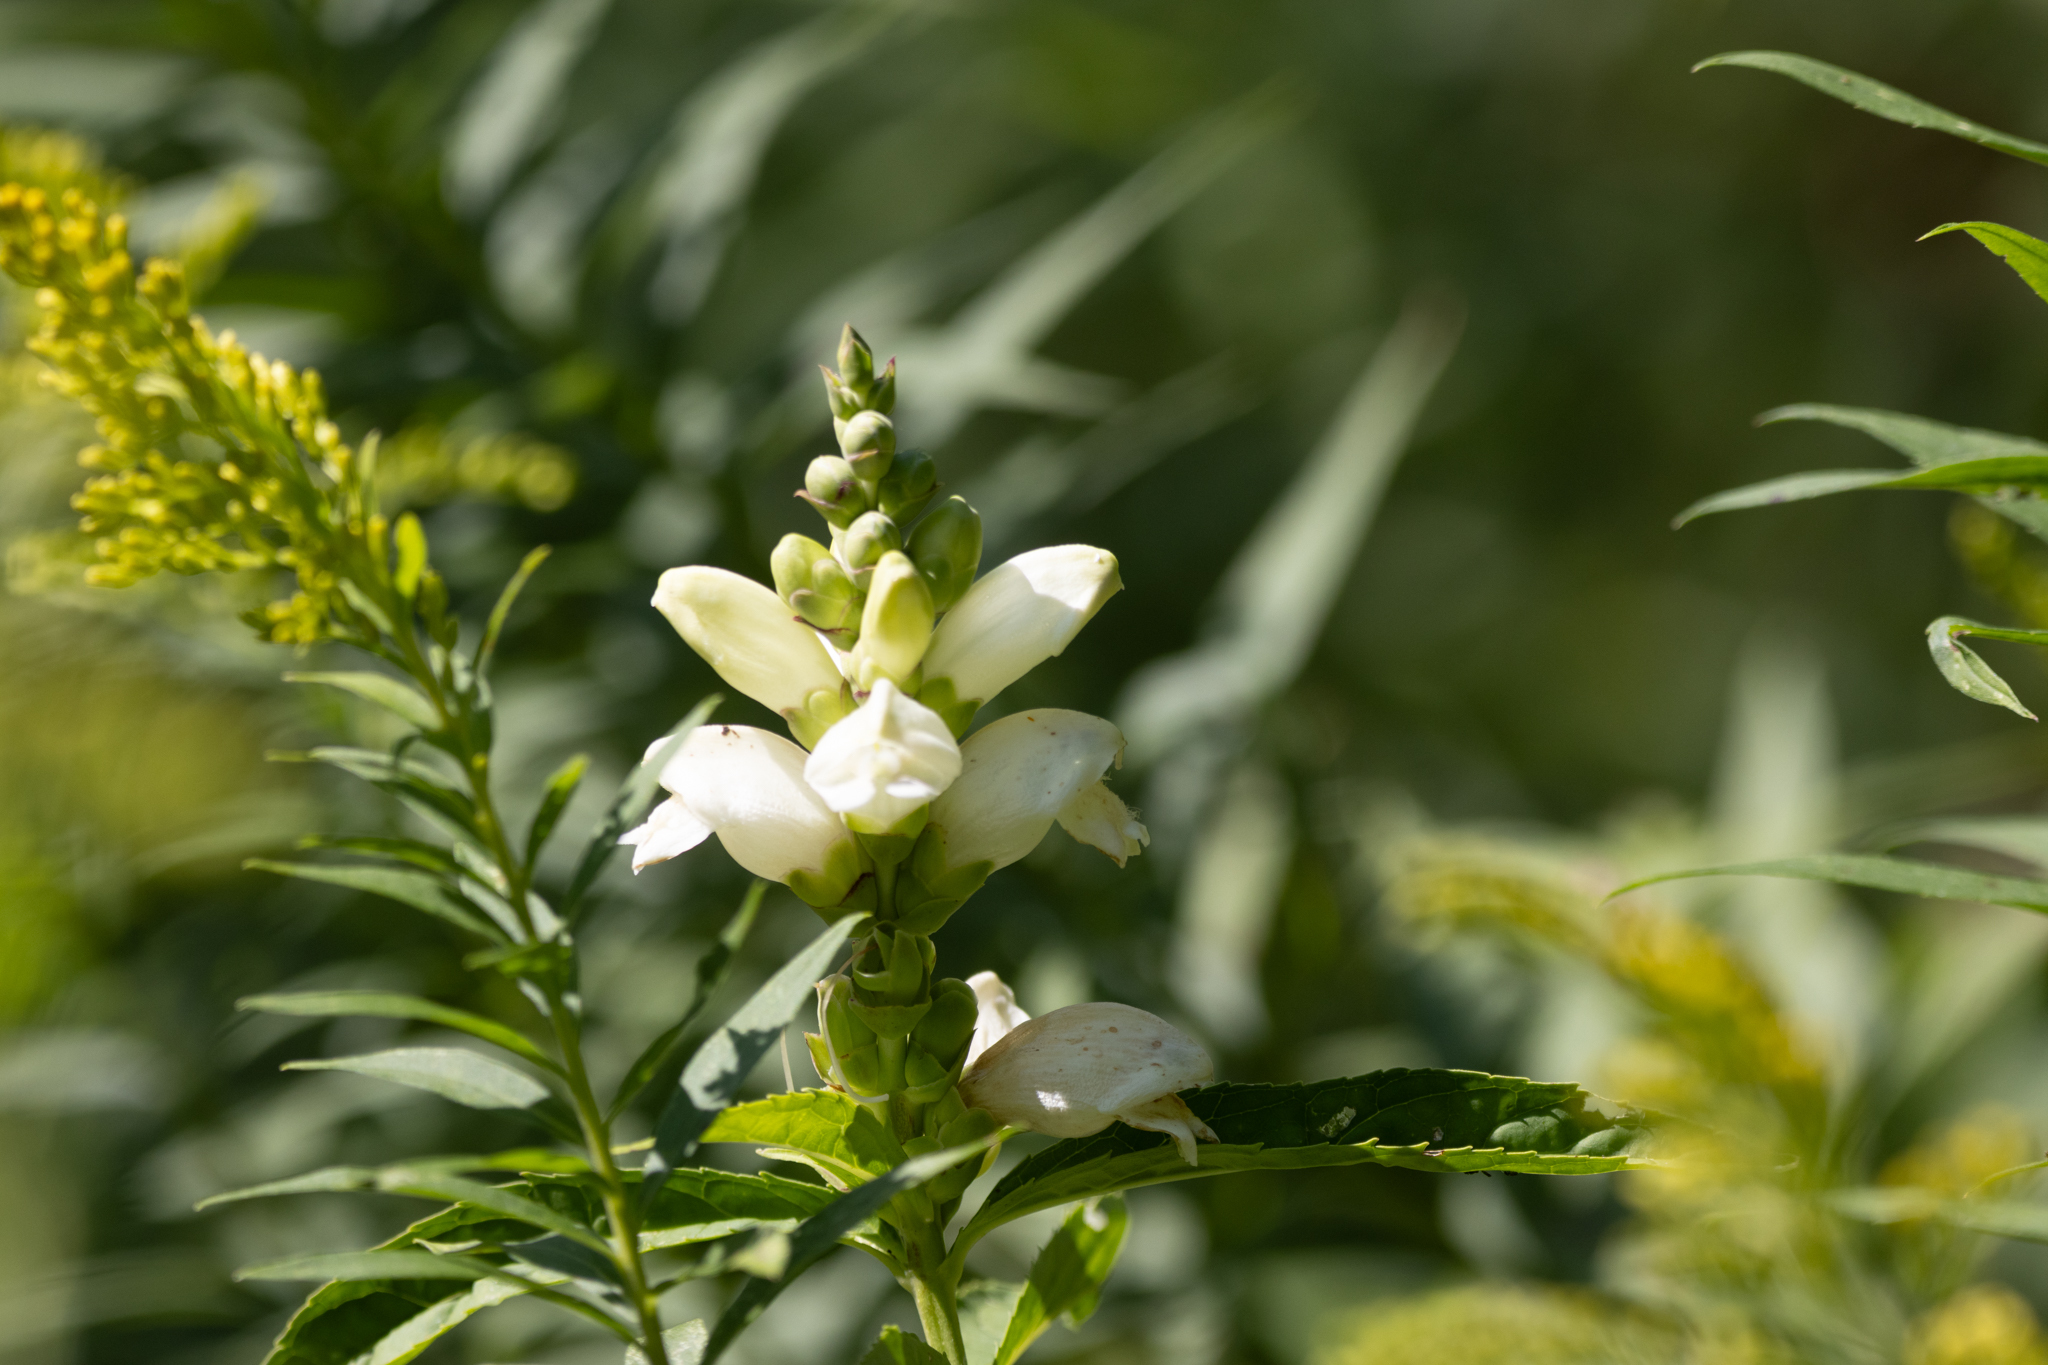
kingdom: Plantae
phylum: Tracheophyta
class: Magnoliopsida
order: Lamiales
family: Plantaginaceae
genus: Chelone
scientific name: Chelone glabra
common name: Snakehead
